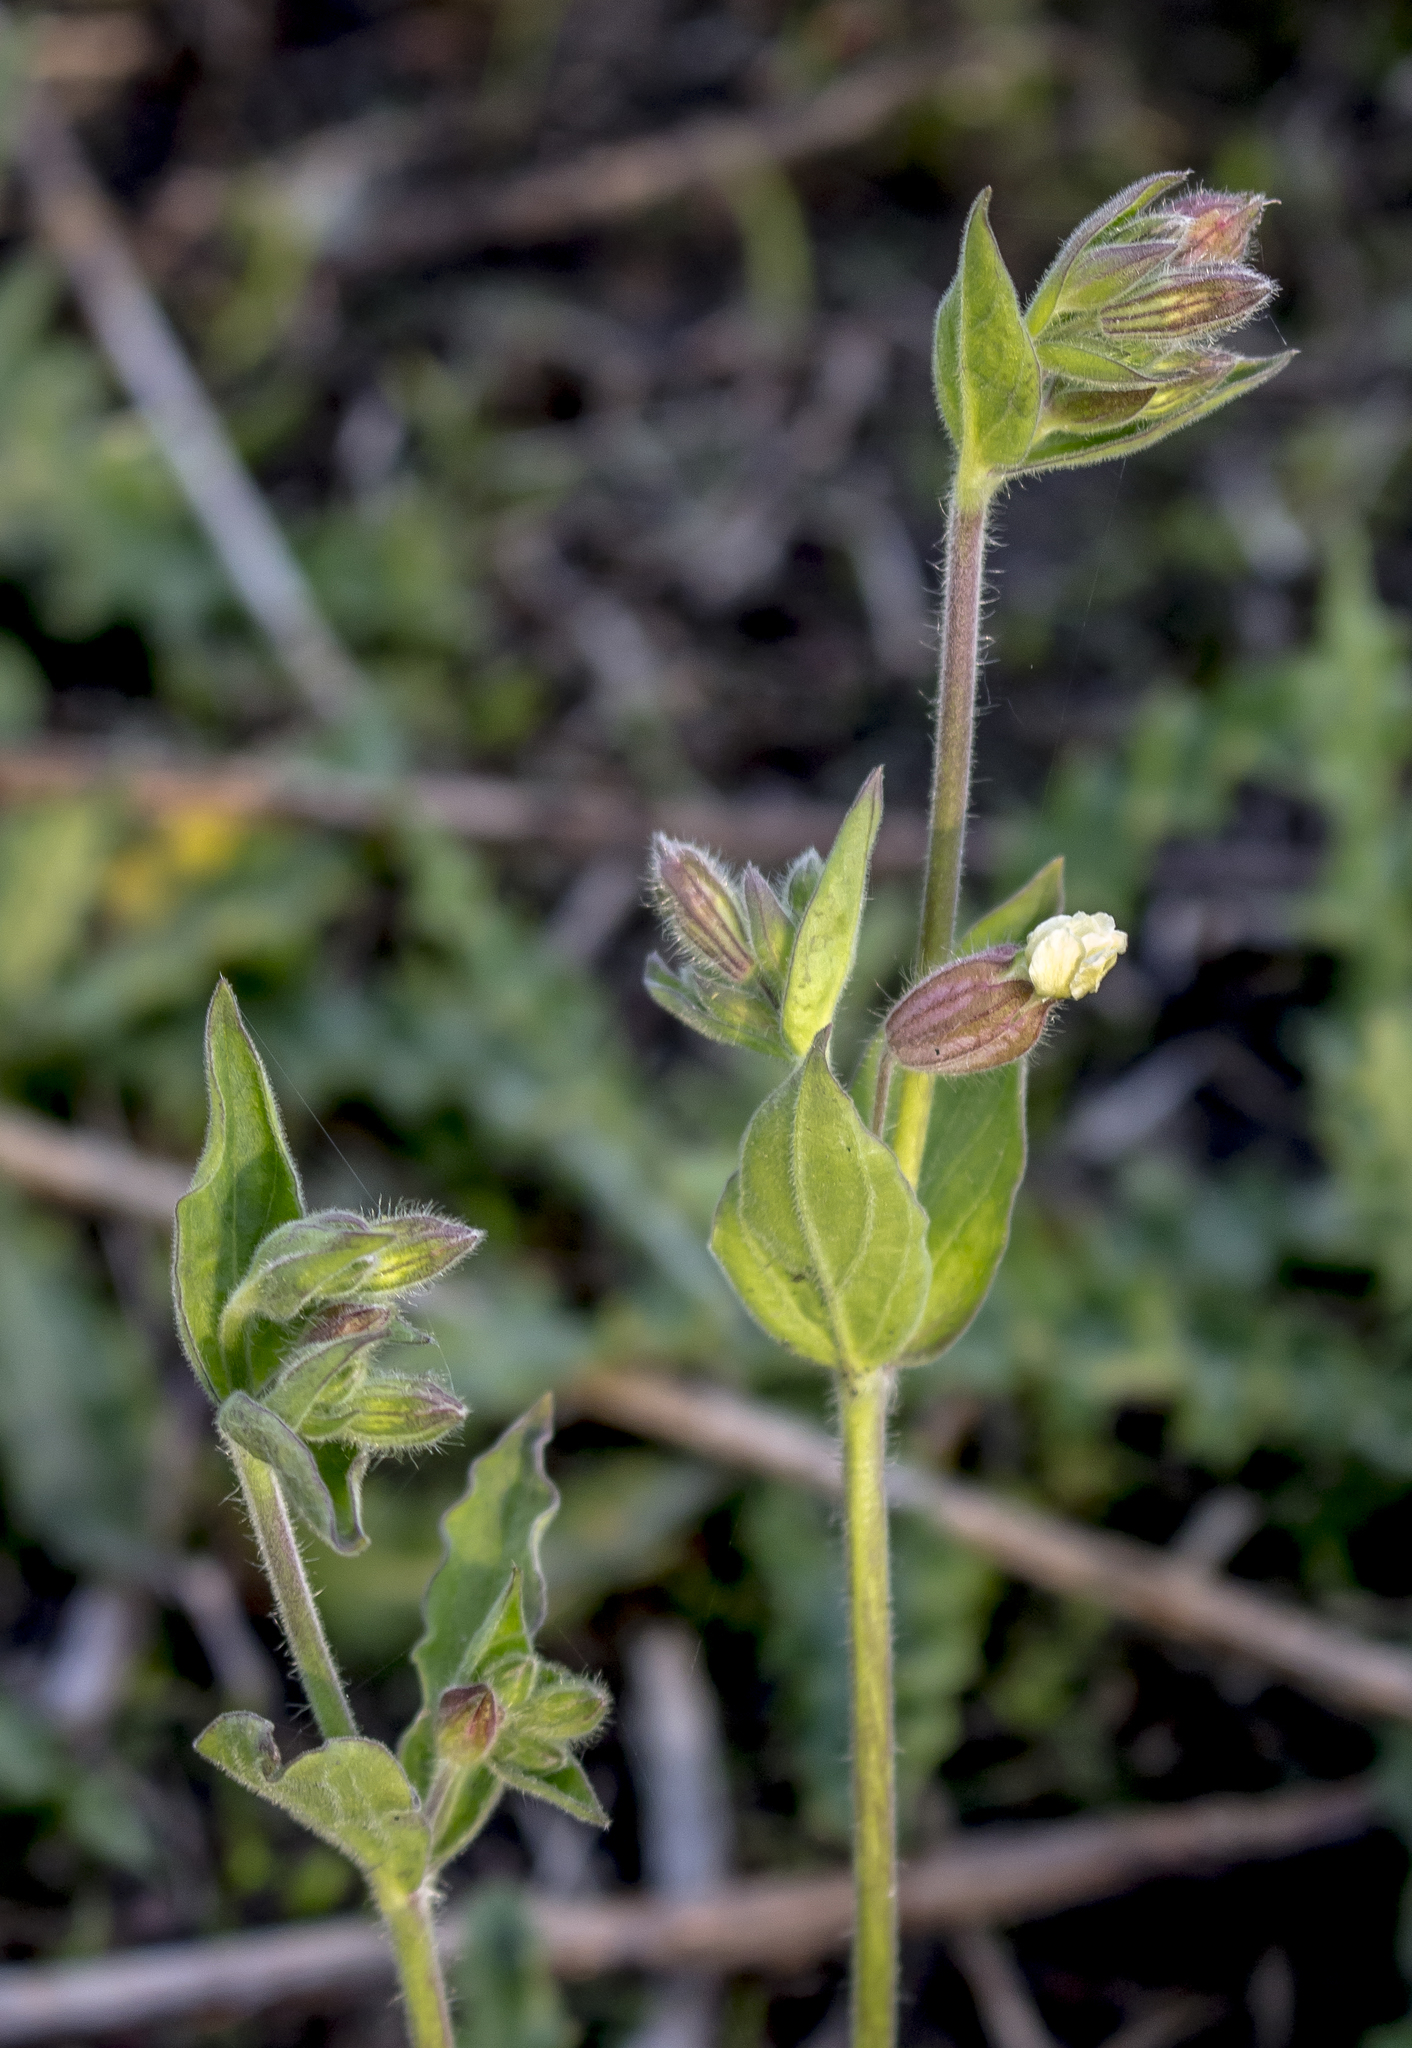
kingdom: Plantae
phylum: Tracheophyta
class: Magnoliopsida
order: Caryophyllales
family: Caryophyllaceae
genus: Silene
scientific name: Silene latifolia
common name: White campion
